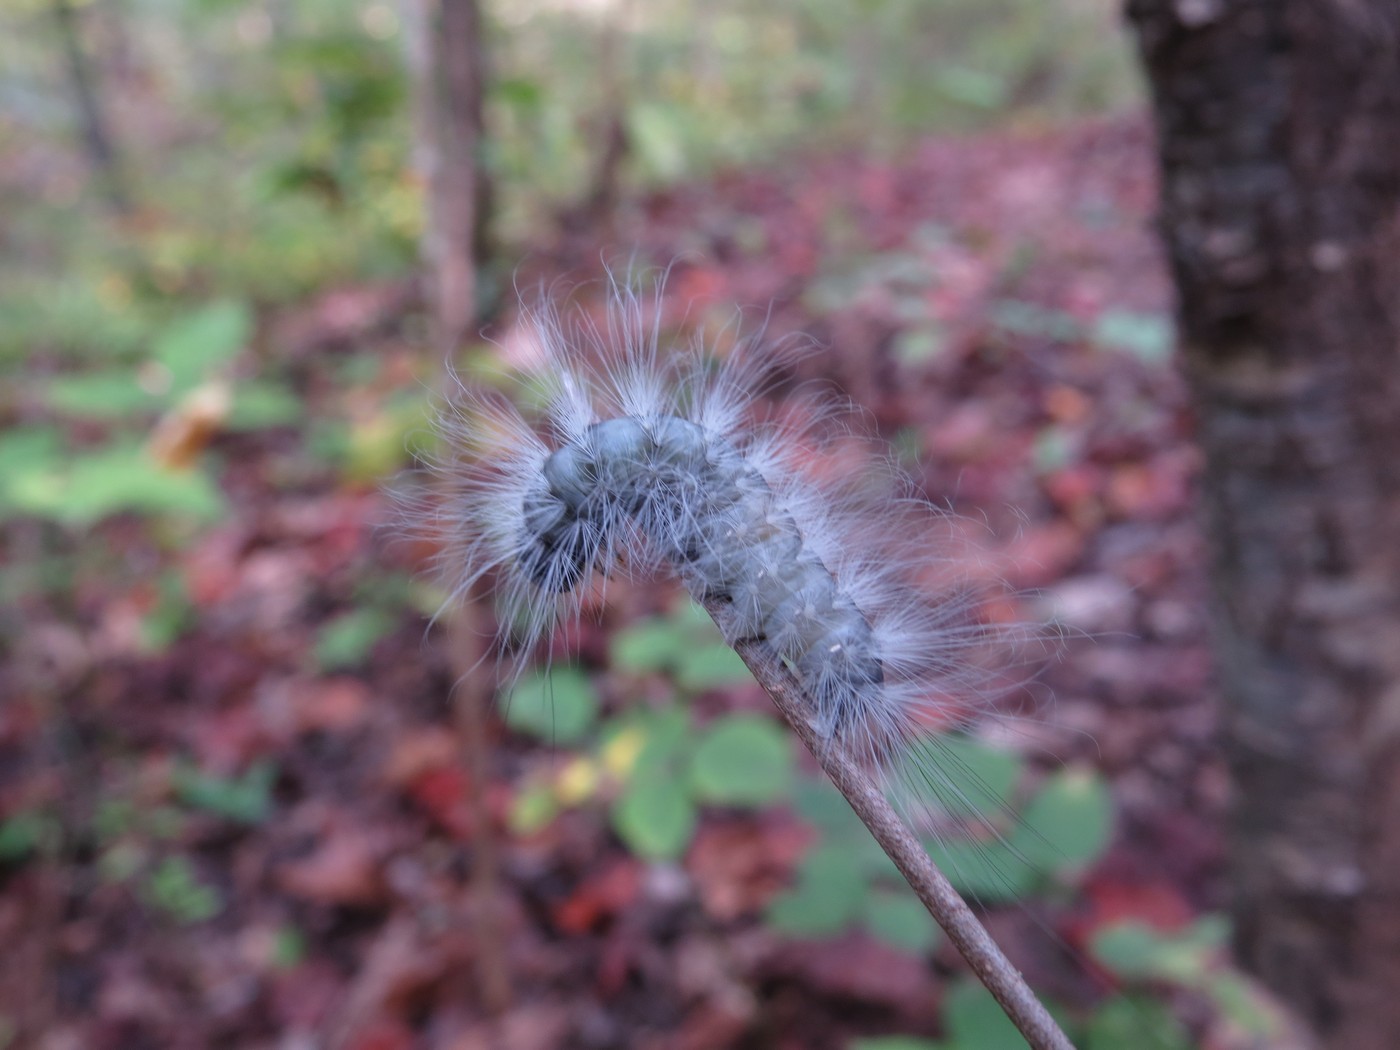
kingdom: Animalia
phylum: Arthropoda
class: Insecta
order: Lepidoptera
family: Noctuidae
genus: Charadra
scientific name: Charadra deridens
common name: Marbled tuffet
